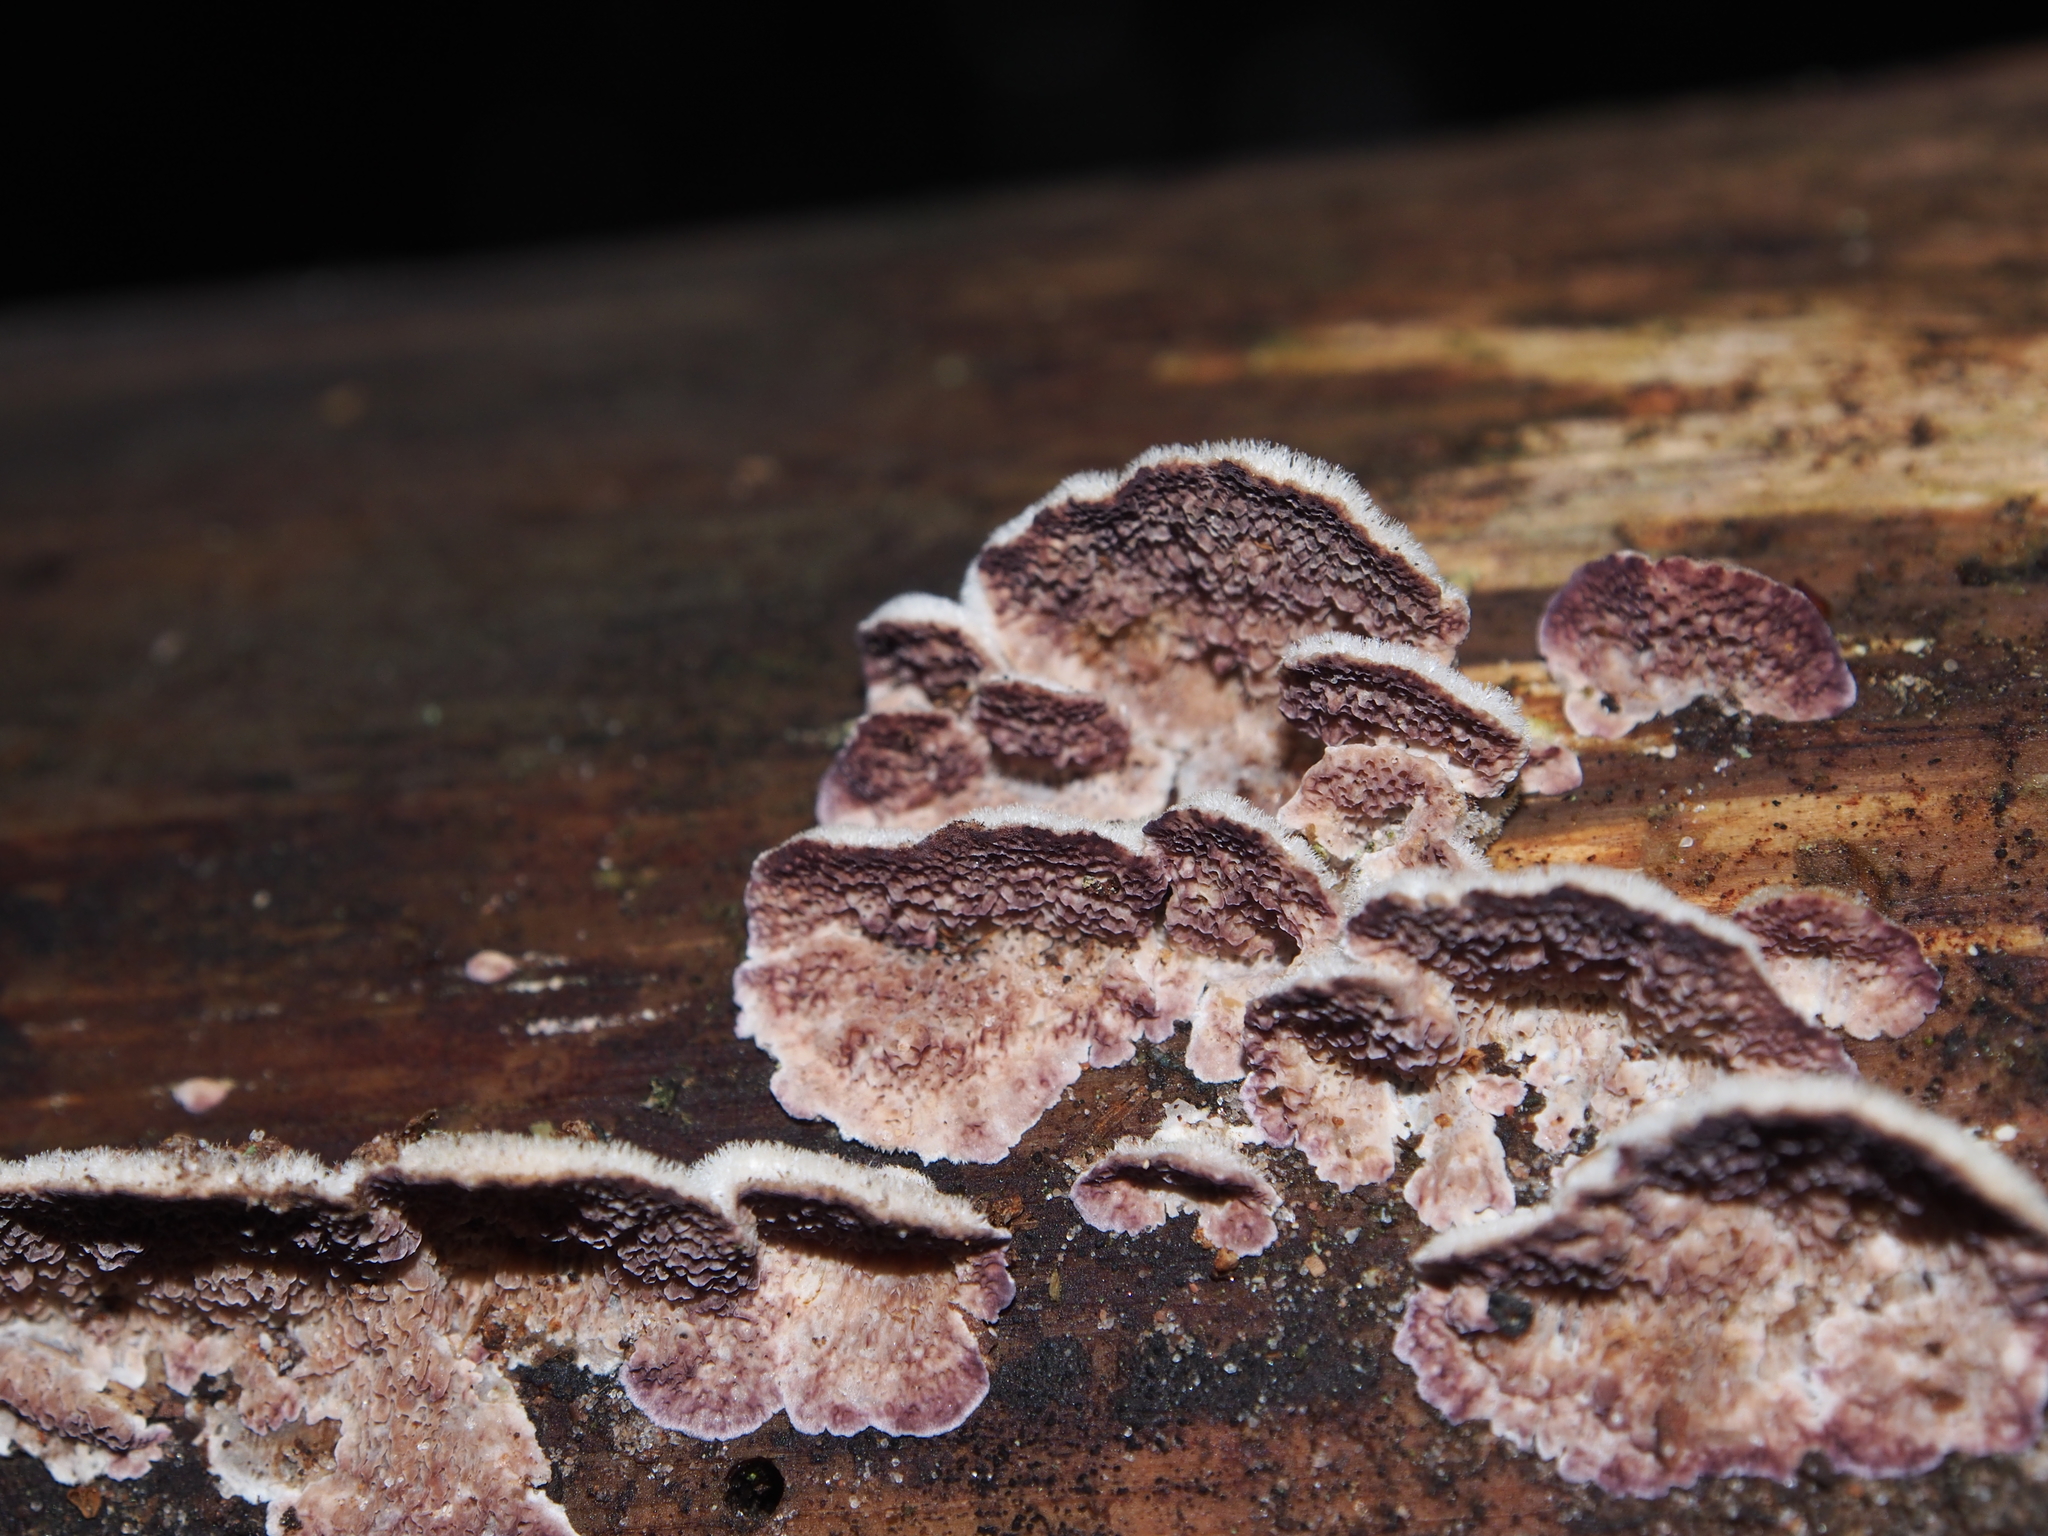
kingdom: Fungi
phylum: Basidiomycota
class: Agaricomycetes
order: Hymenochaetales
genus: Trichaptum
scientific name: Trichaptum abietinum
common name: Purplepore bracket
